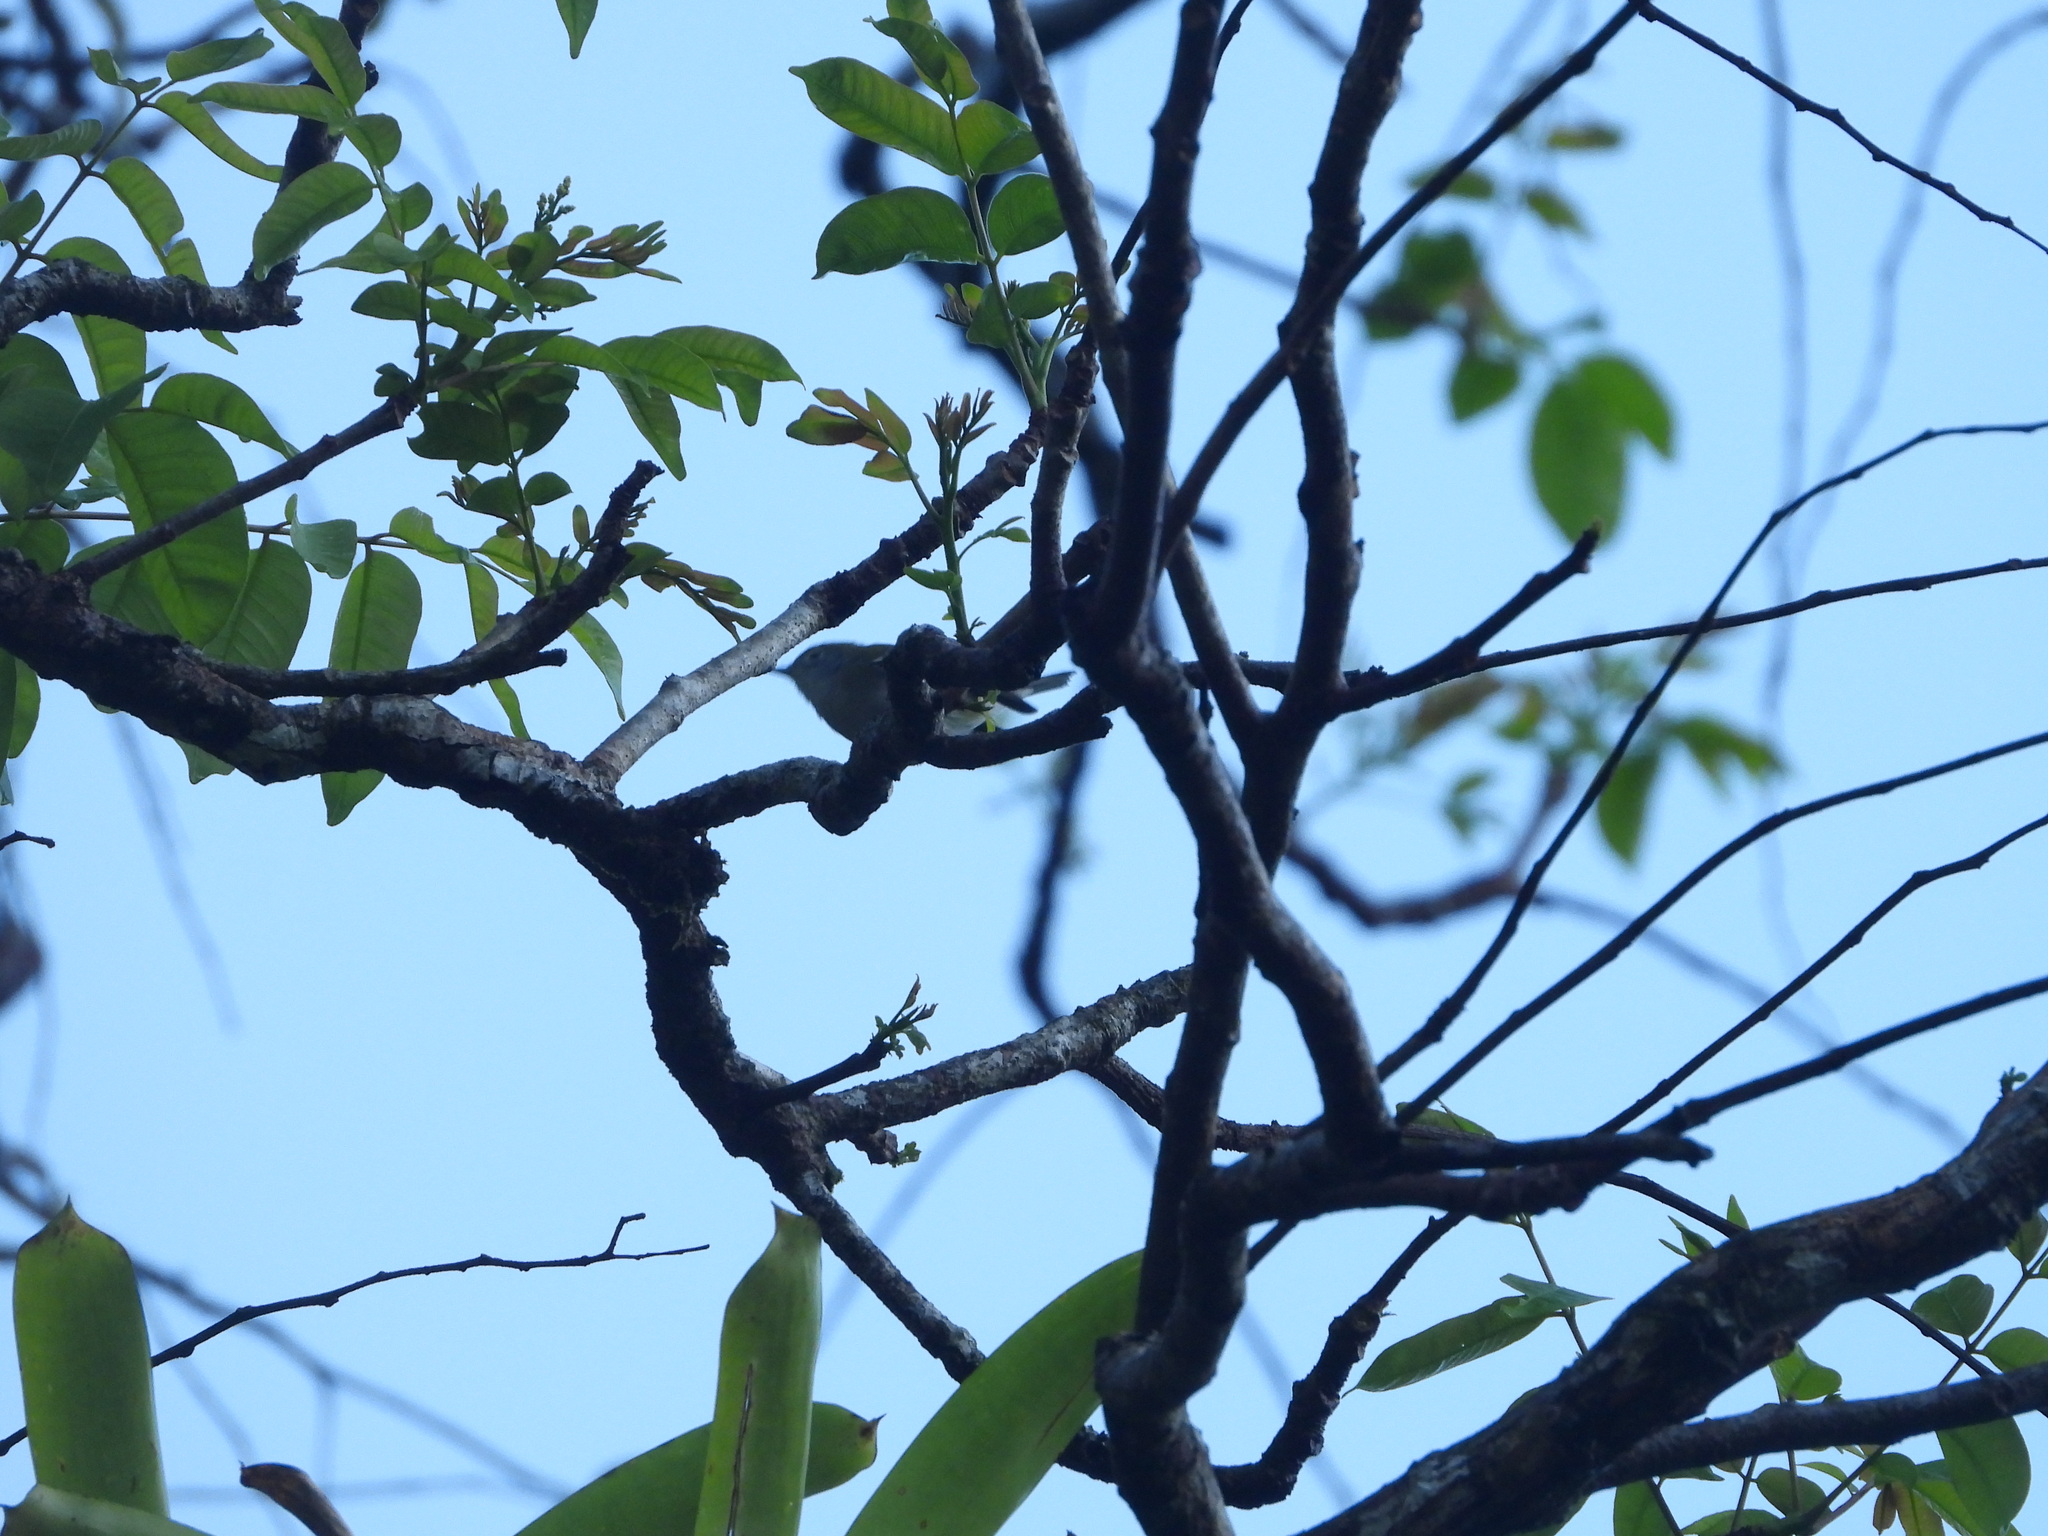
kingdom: Animalia
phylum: Chordata
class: Aves
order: Passeriformes
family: Parulidae
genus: Setophaga
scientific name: Setophaga pensylvanica
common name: Chestnut-sided warbler
